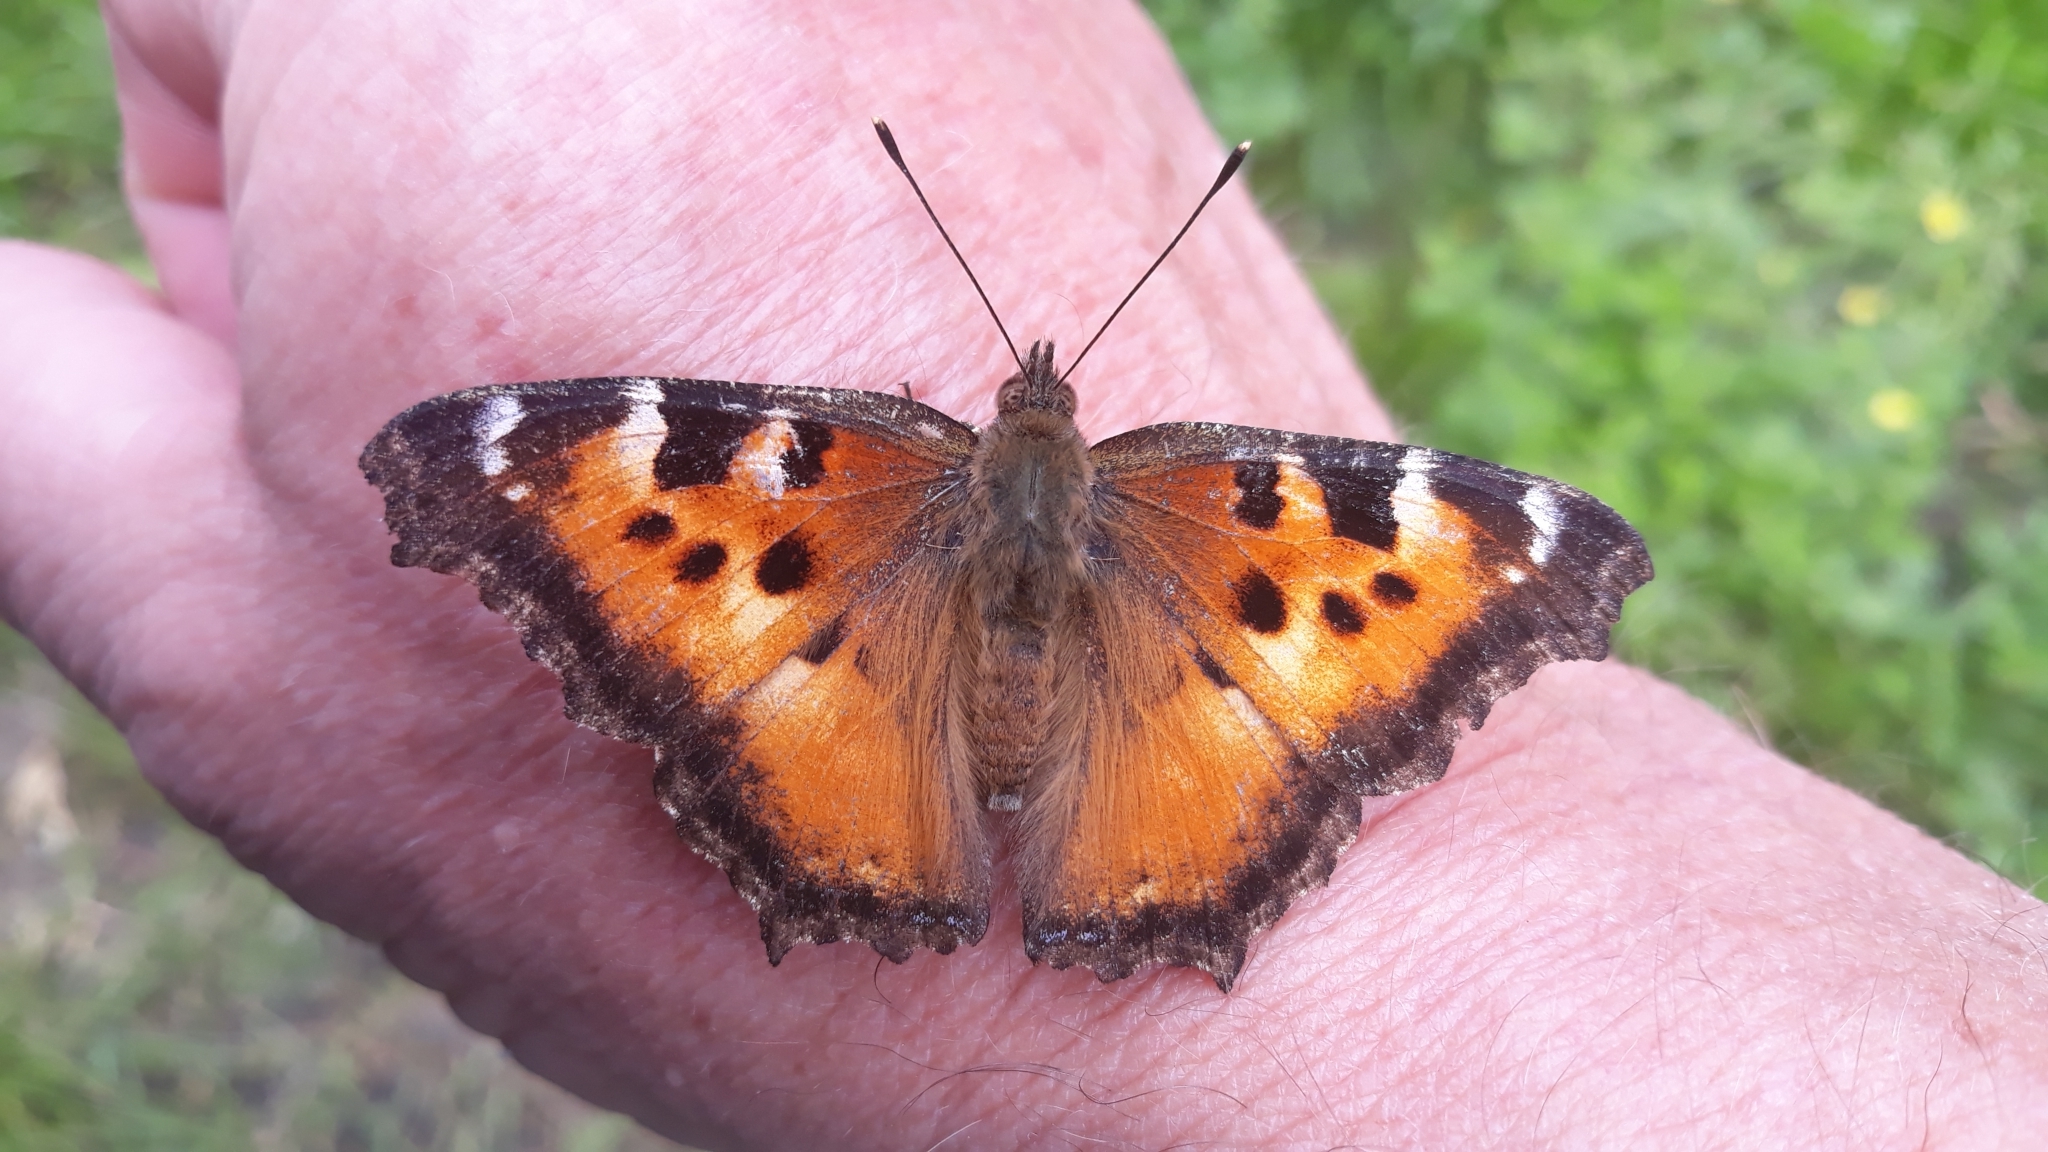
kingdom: Animalia
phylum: Arthropoda
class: Insecta
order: Lepidoptera
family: Nymphalidae
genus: Nymphalis
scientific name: Nymphalis californica
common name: California tortoiseshell
